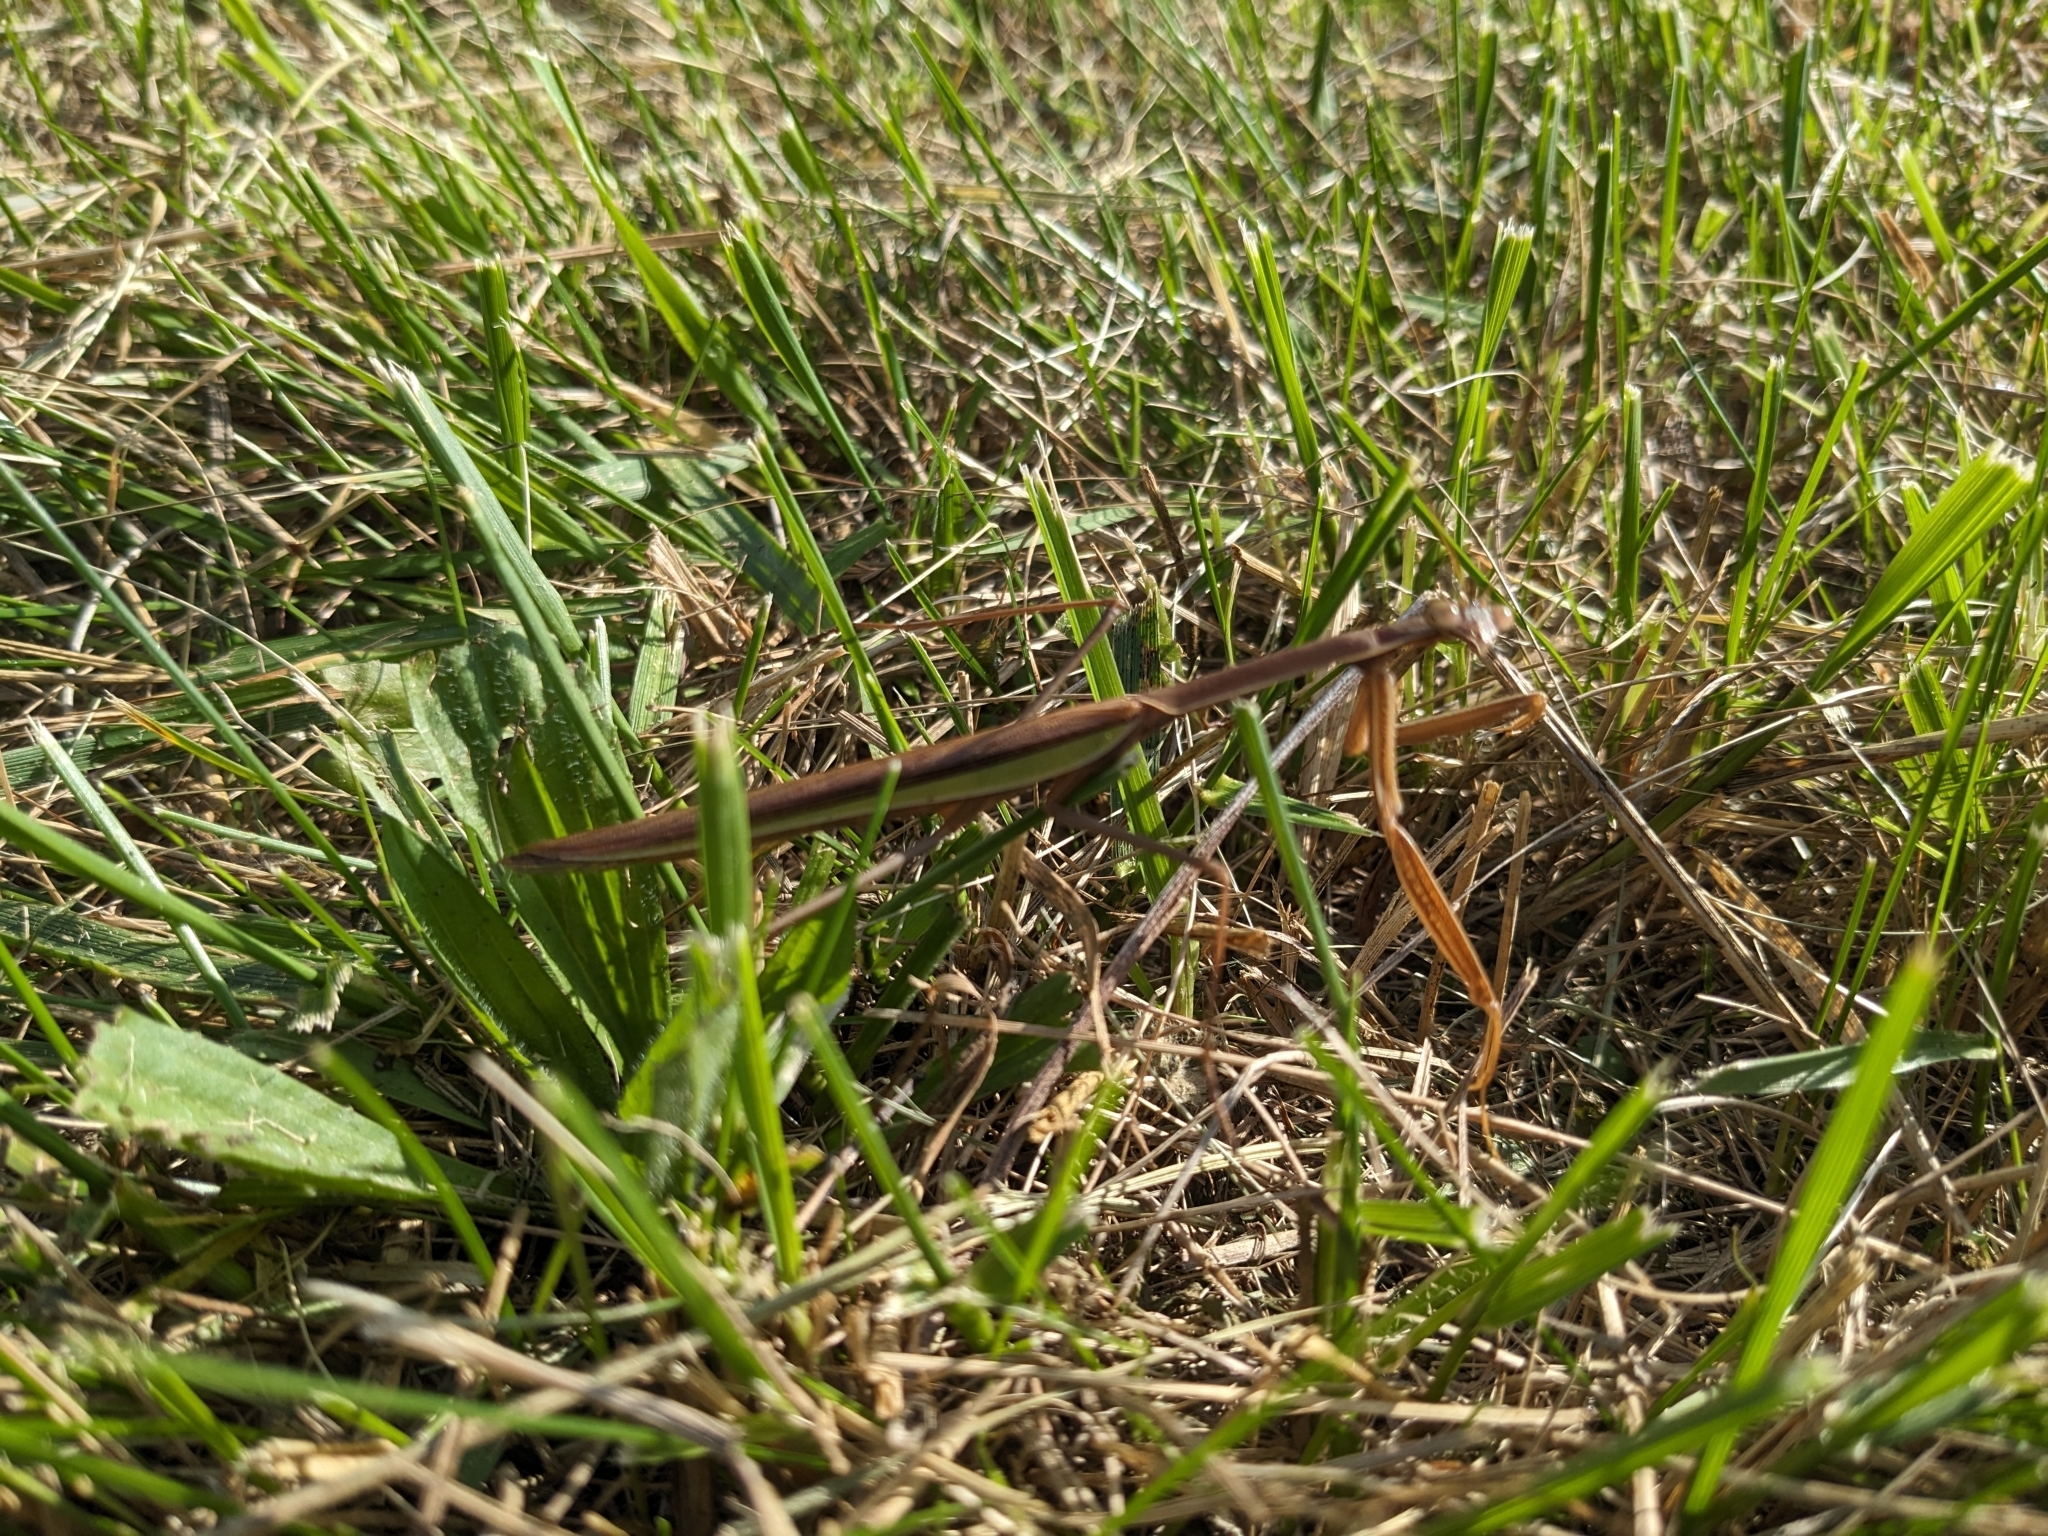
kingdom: Animalia
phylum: Arthropoda
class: Insecta
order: Mantodea
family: Mantidae
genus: Tenodera
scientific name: Tenodera sinensis
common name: Chinese mantis
